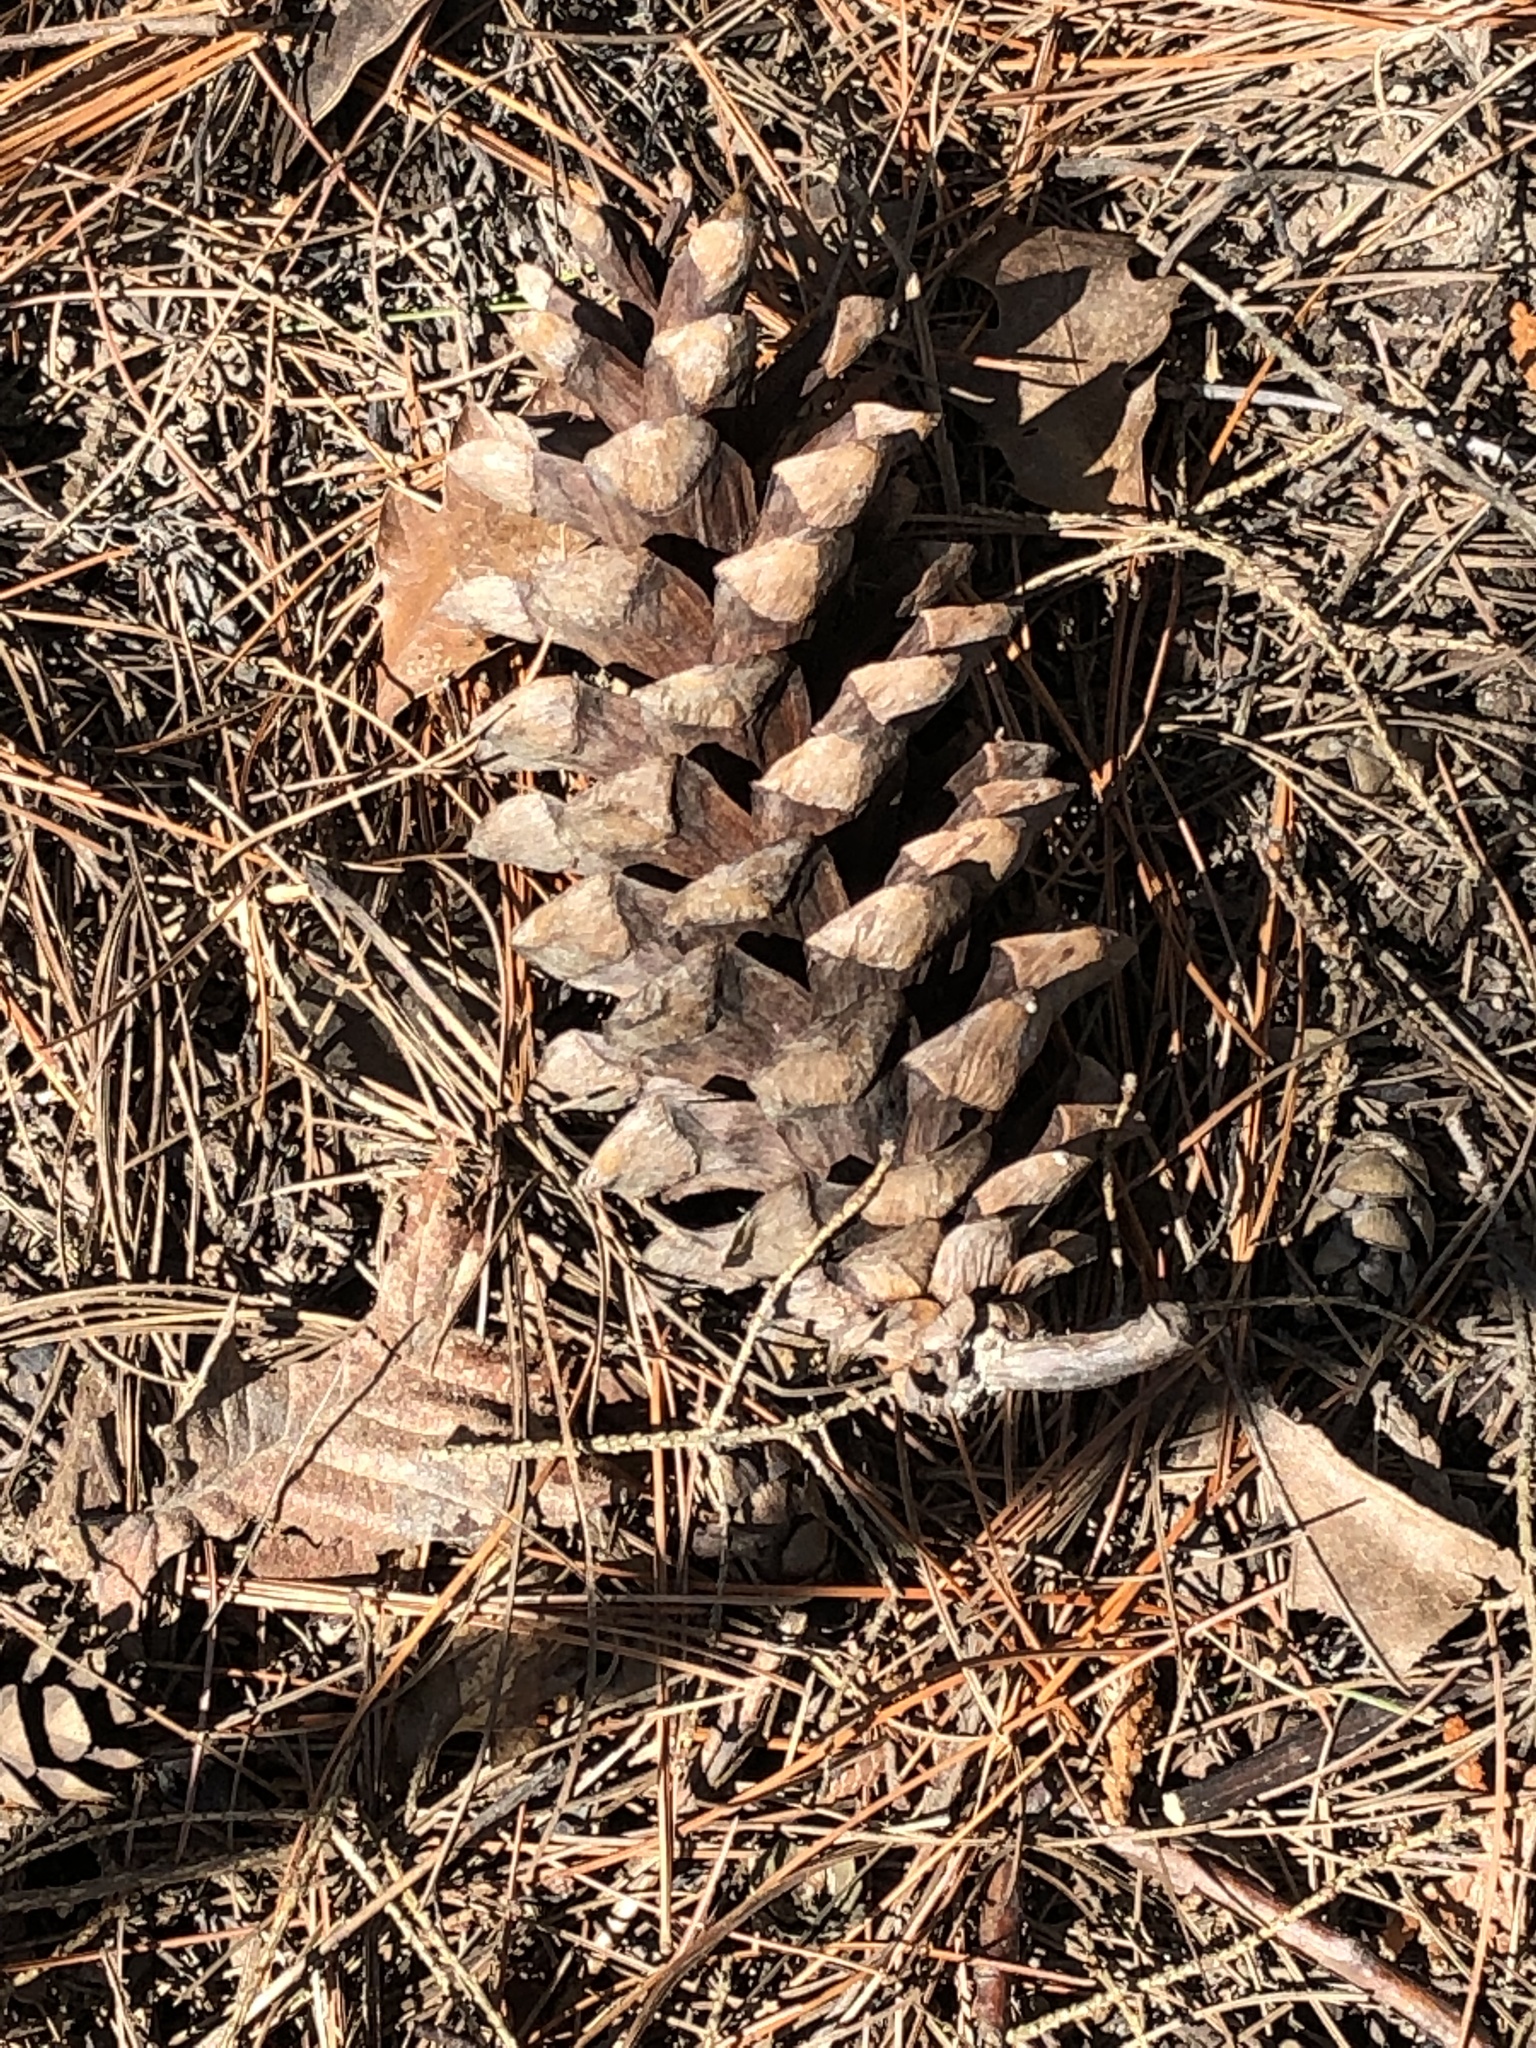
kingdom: Plantae
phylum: Tracheophyta
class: Pinopsida
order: Pinales
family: Pinaceae
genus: Pinus
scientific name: Pinus strobus
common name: Weymouth pine
